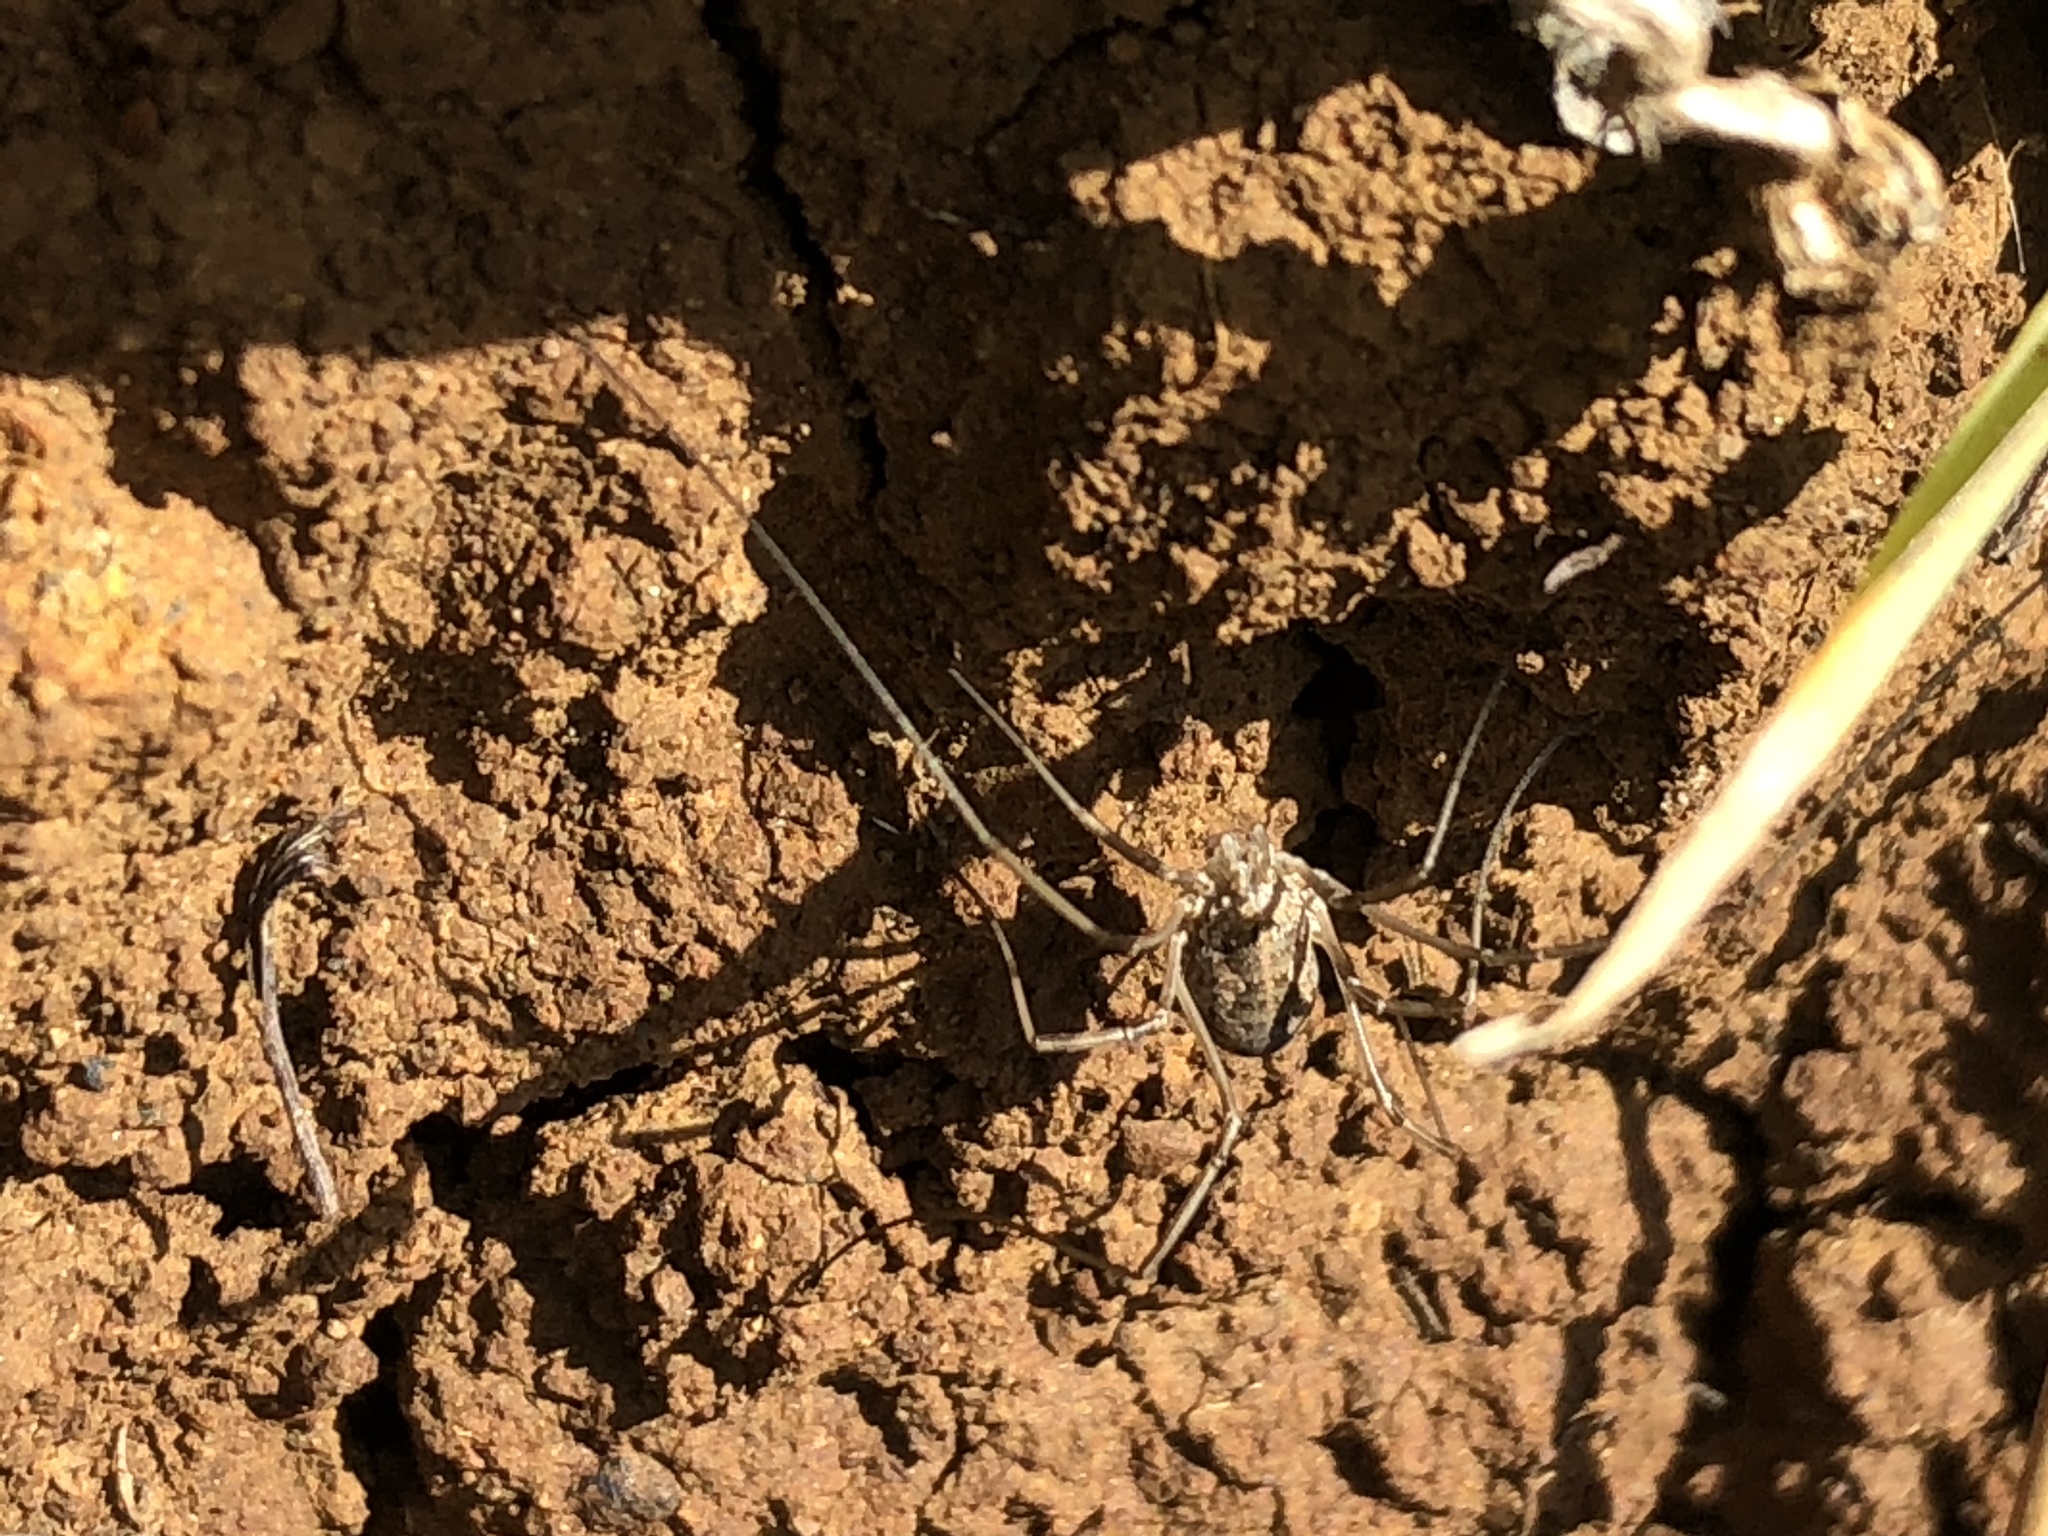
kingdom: Animalia
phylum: Arthropoda
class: Arachnida
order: Opiliones
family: Phalangiidae
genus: Phalangium
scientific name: Phalangium opilio
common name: Daddy longleg
